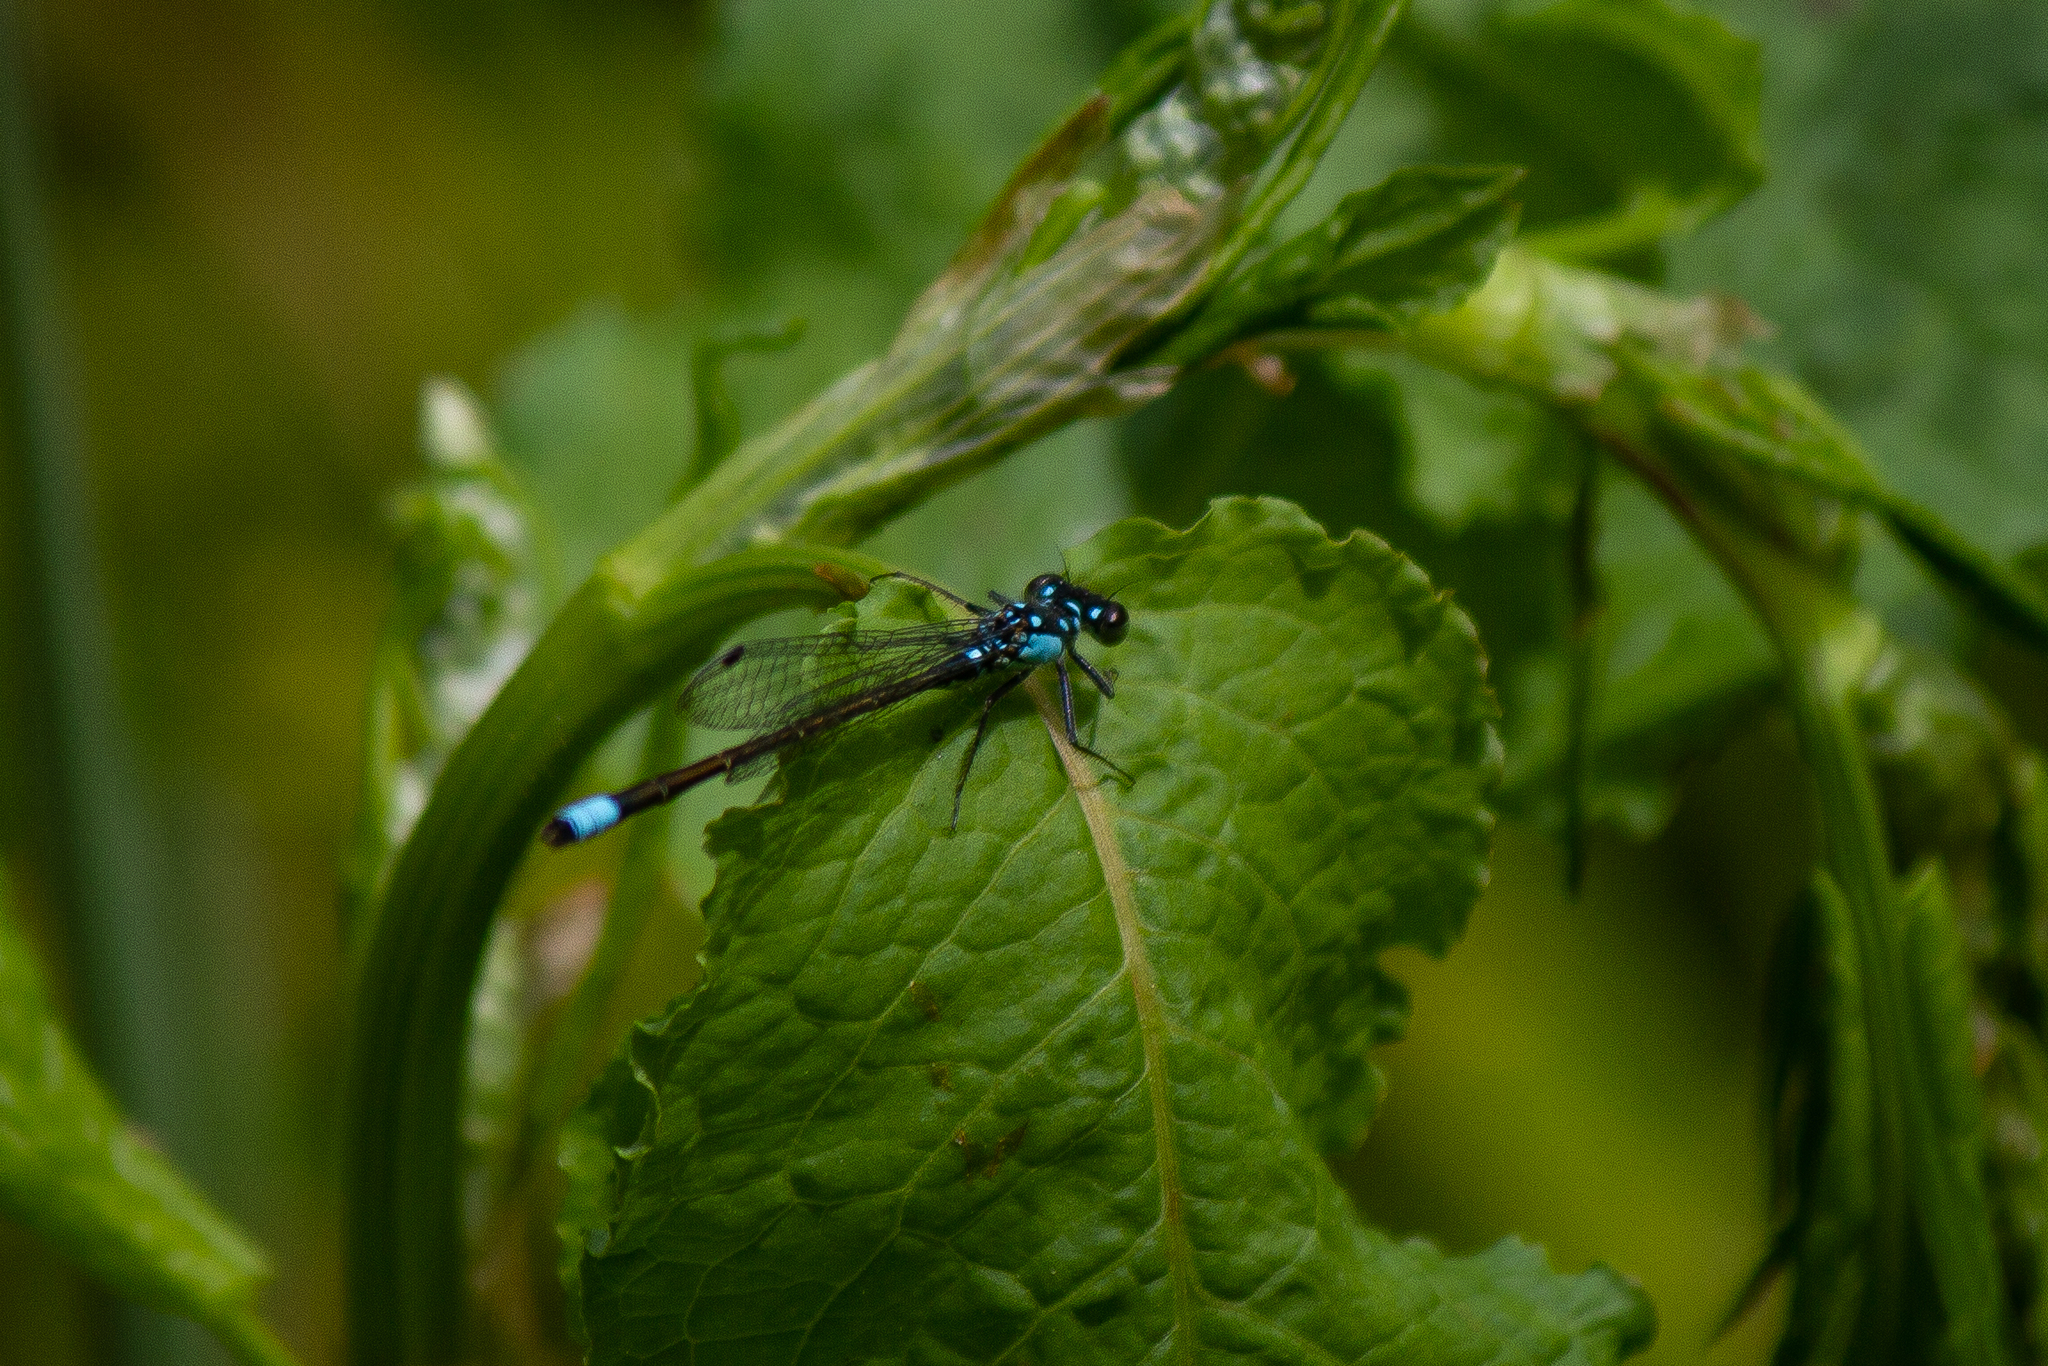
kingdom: Animalia
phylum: Arthropoda
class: Insecta
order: Odonata
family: Coenagrionidae
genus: Ischnura
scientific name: Ischnura cervula
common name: Pacific forktail
